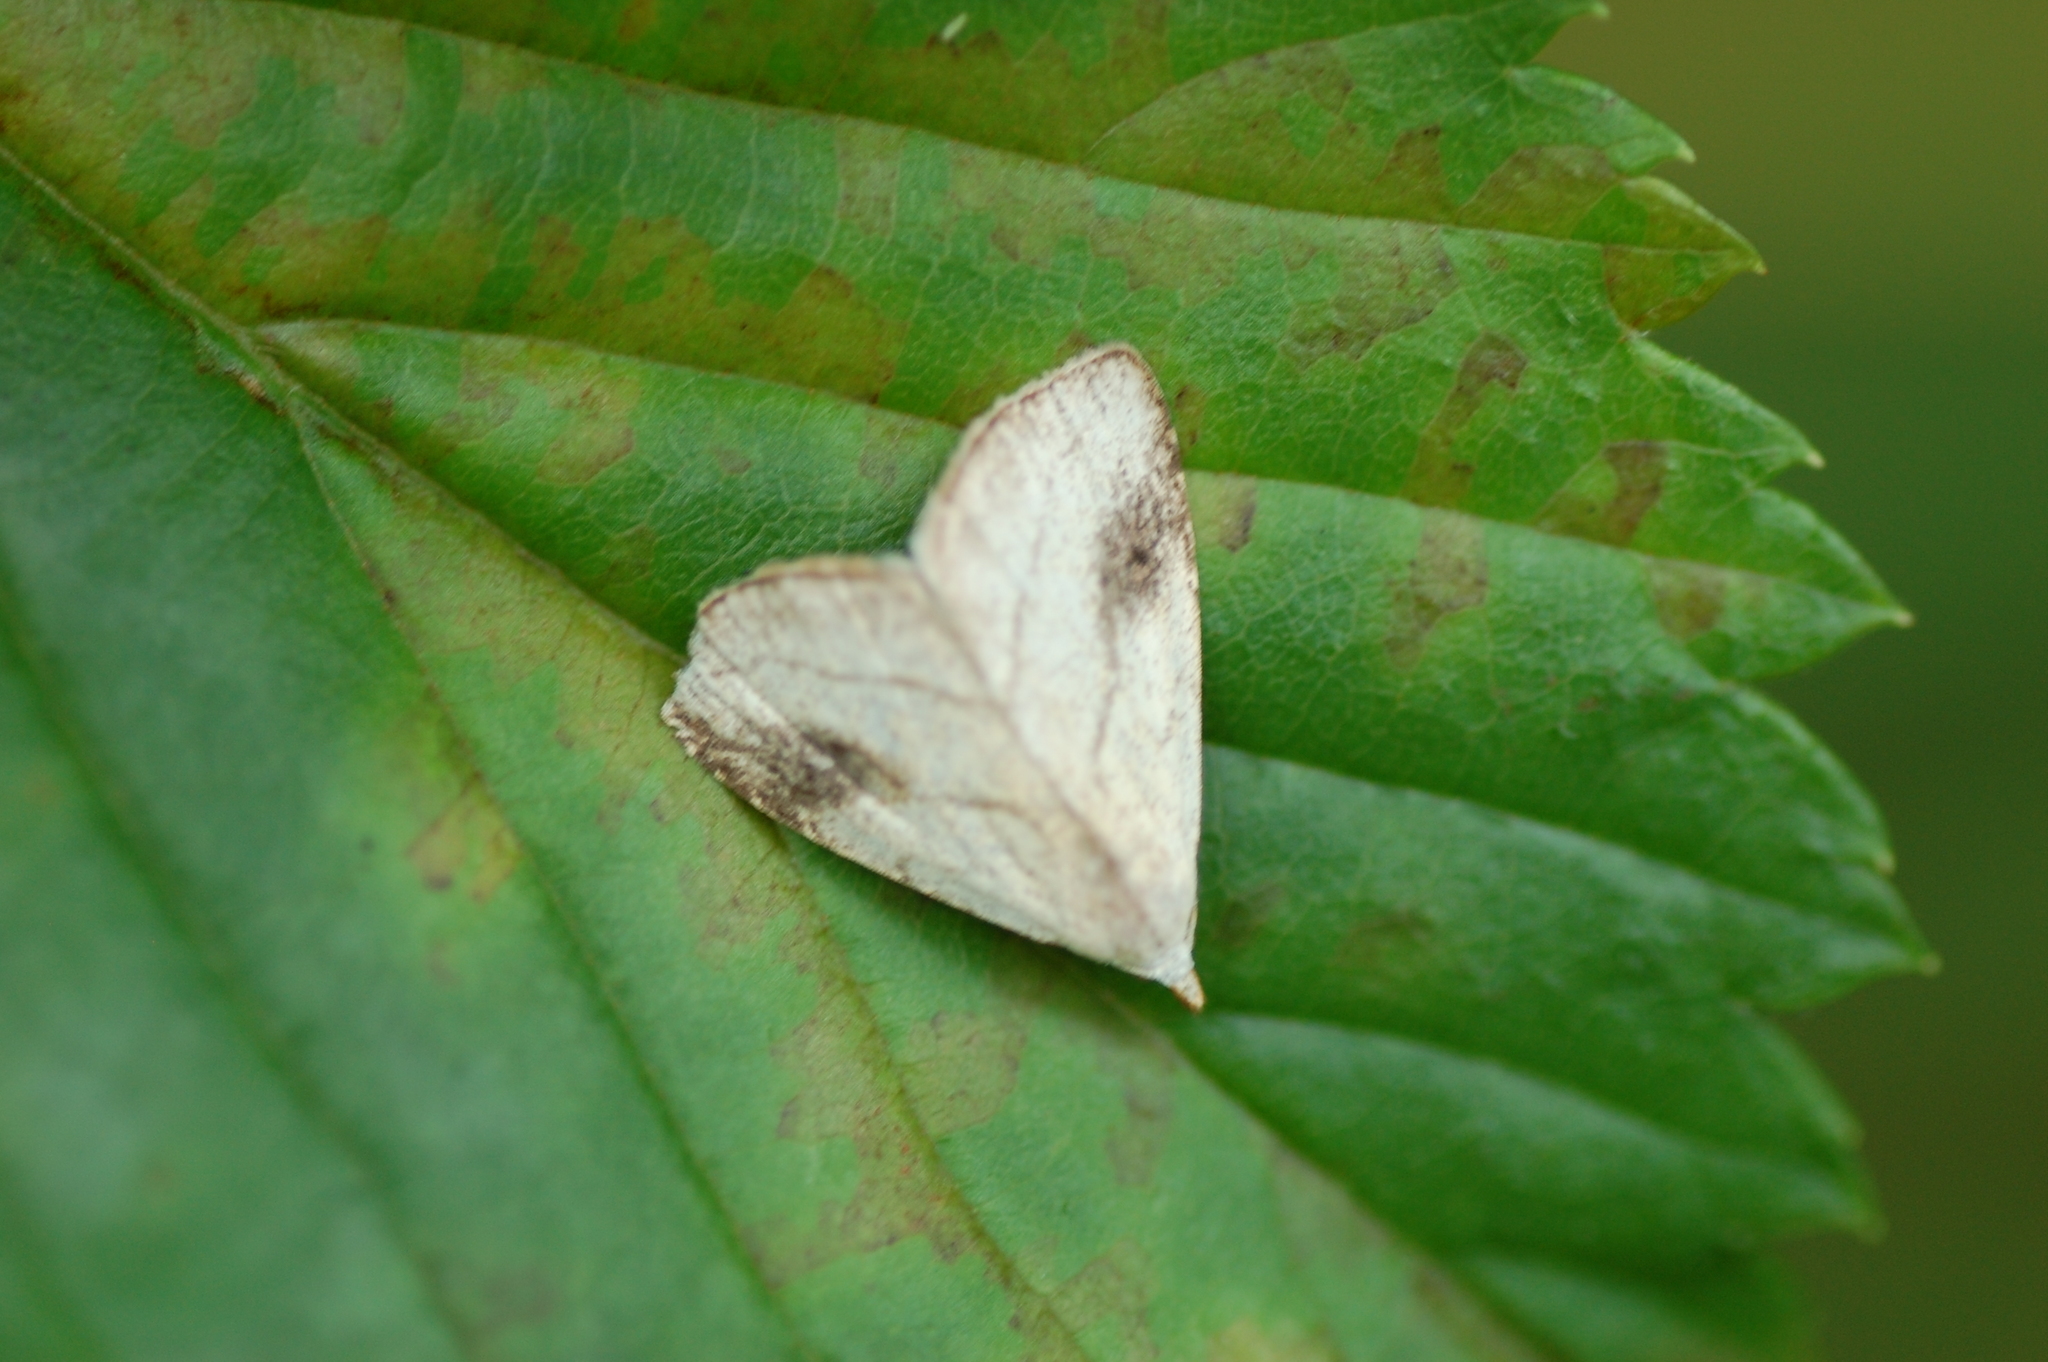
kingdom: Animalia
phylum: Arthropoda
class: Insecta
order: Lepidoptera
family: Erebidae
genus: Rivula
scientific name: Rivula propinqualis
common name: Spotted grass moth
